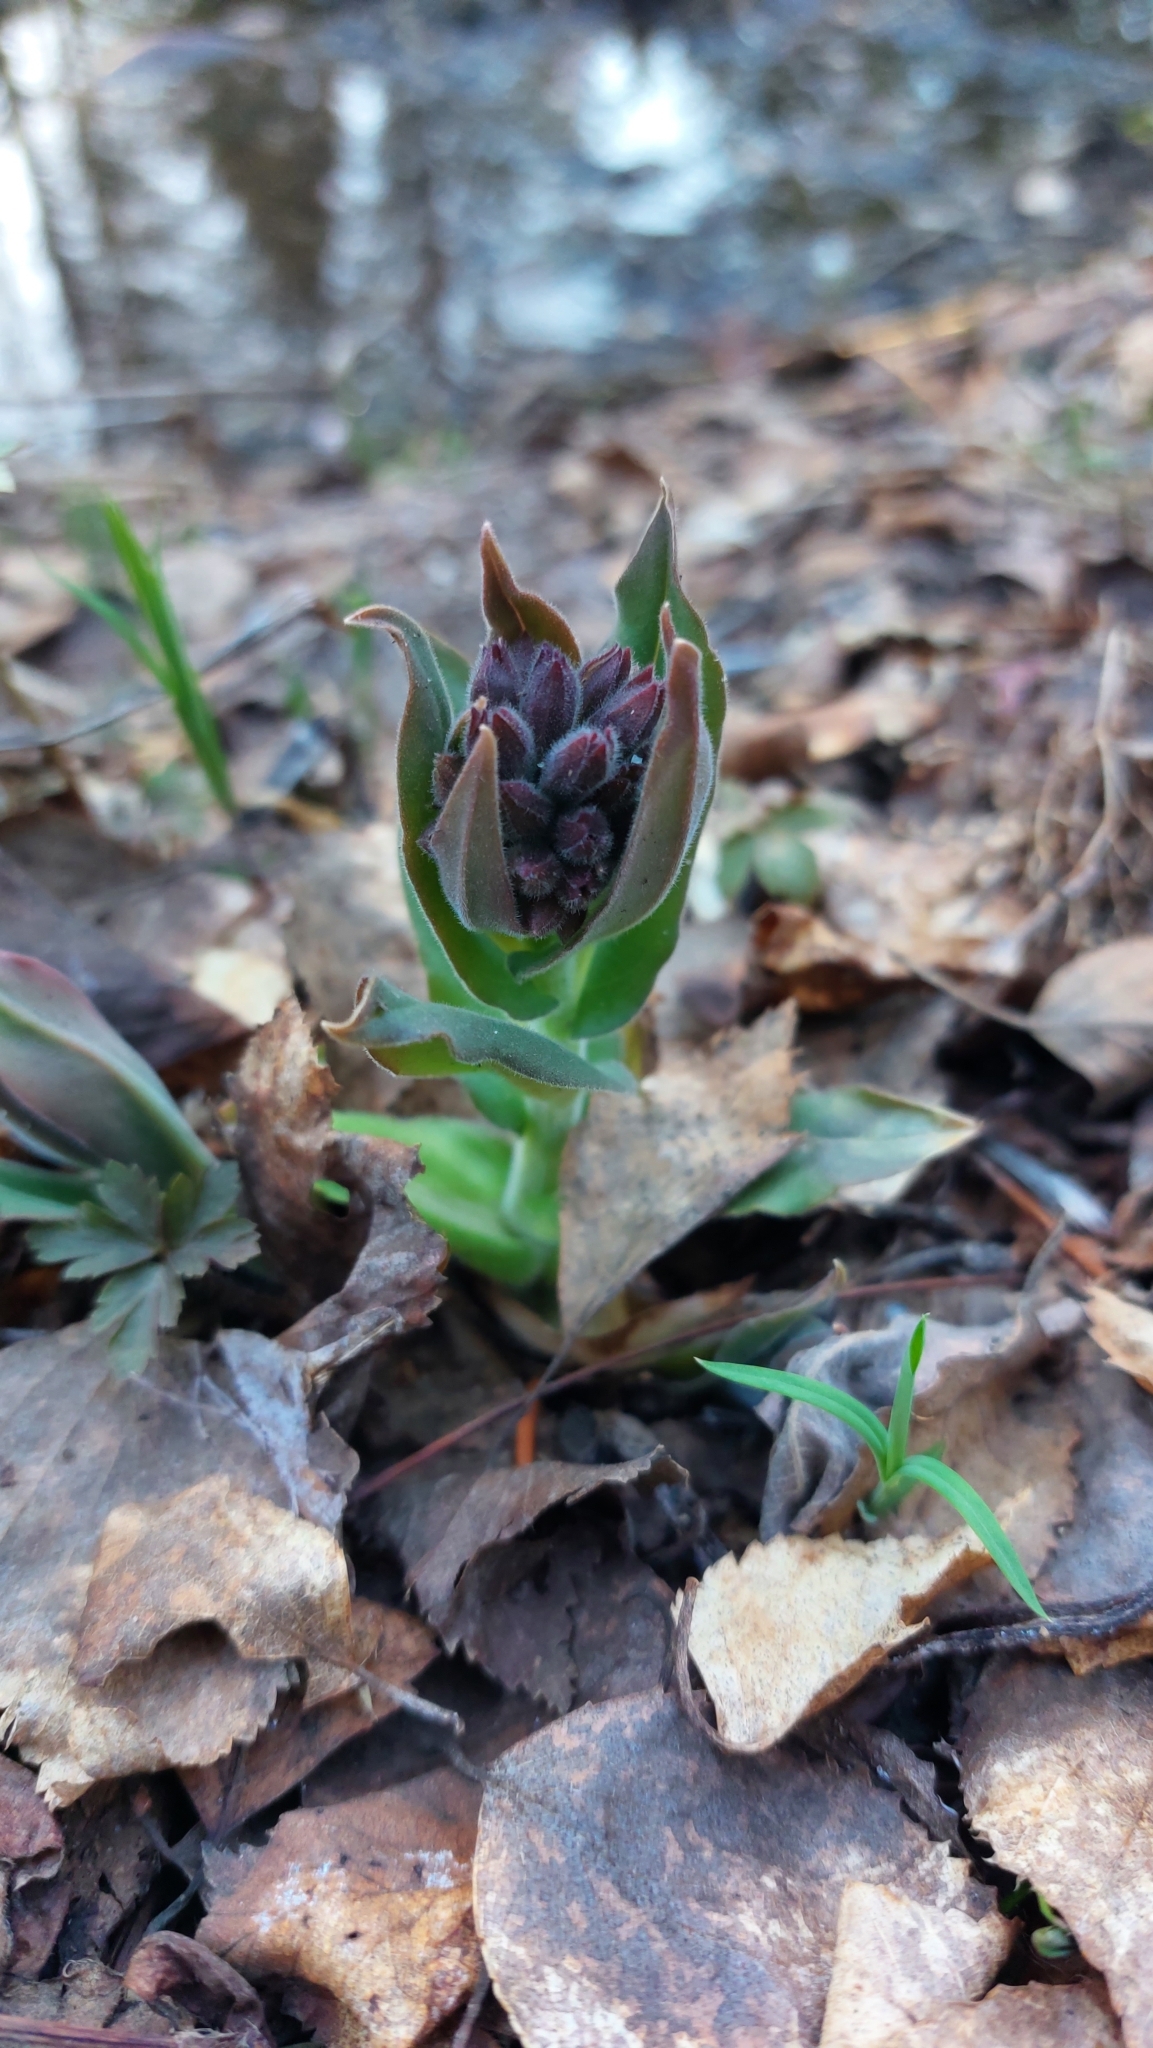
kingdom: Plantae
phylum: Tracheophyta
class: Magnoliopsida
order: Boraginales
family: Boraginaceae
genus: Pulmonaria
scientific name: Pulmonaria mollis
